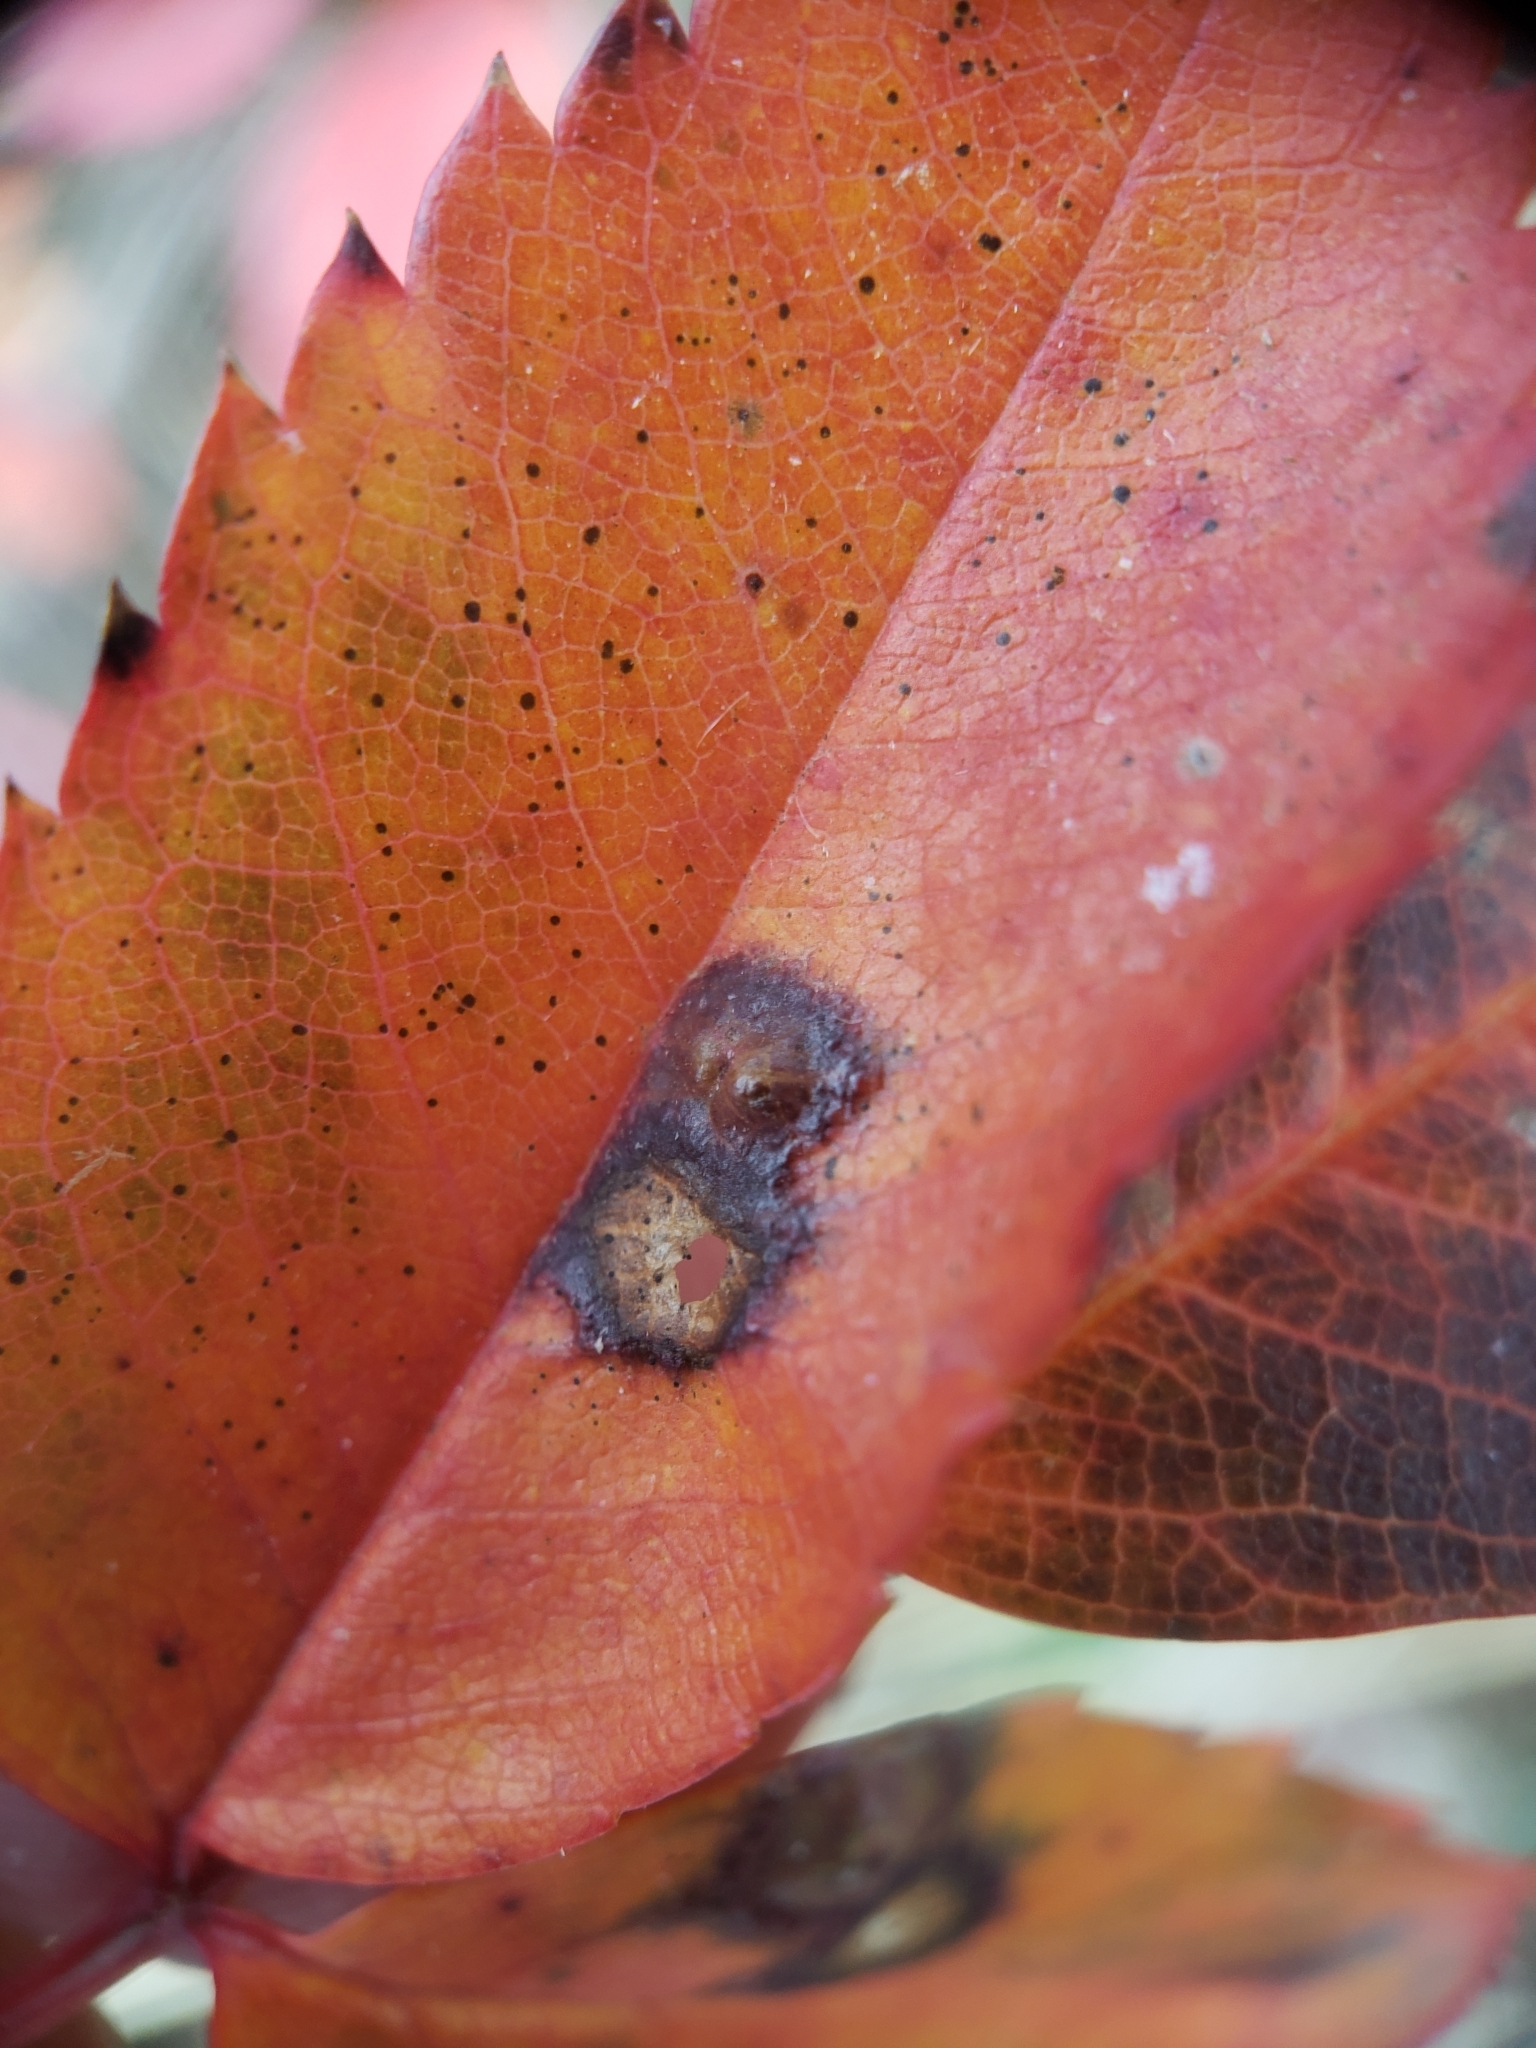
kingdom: Animalia
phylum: Arthropoda
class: Insecta
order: Hymenoptera
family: Cynipidae
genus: Diplolepis
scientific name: Diplolepis rosaefolii
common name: Blister-gall wasp
